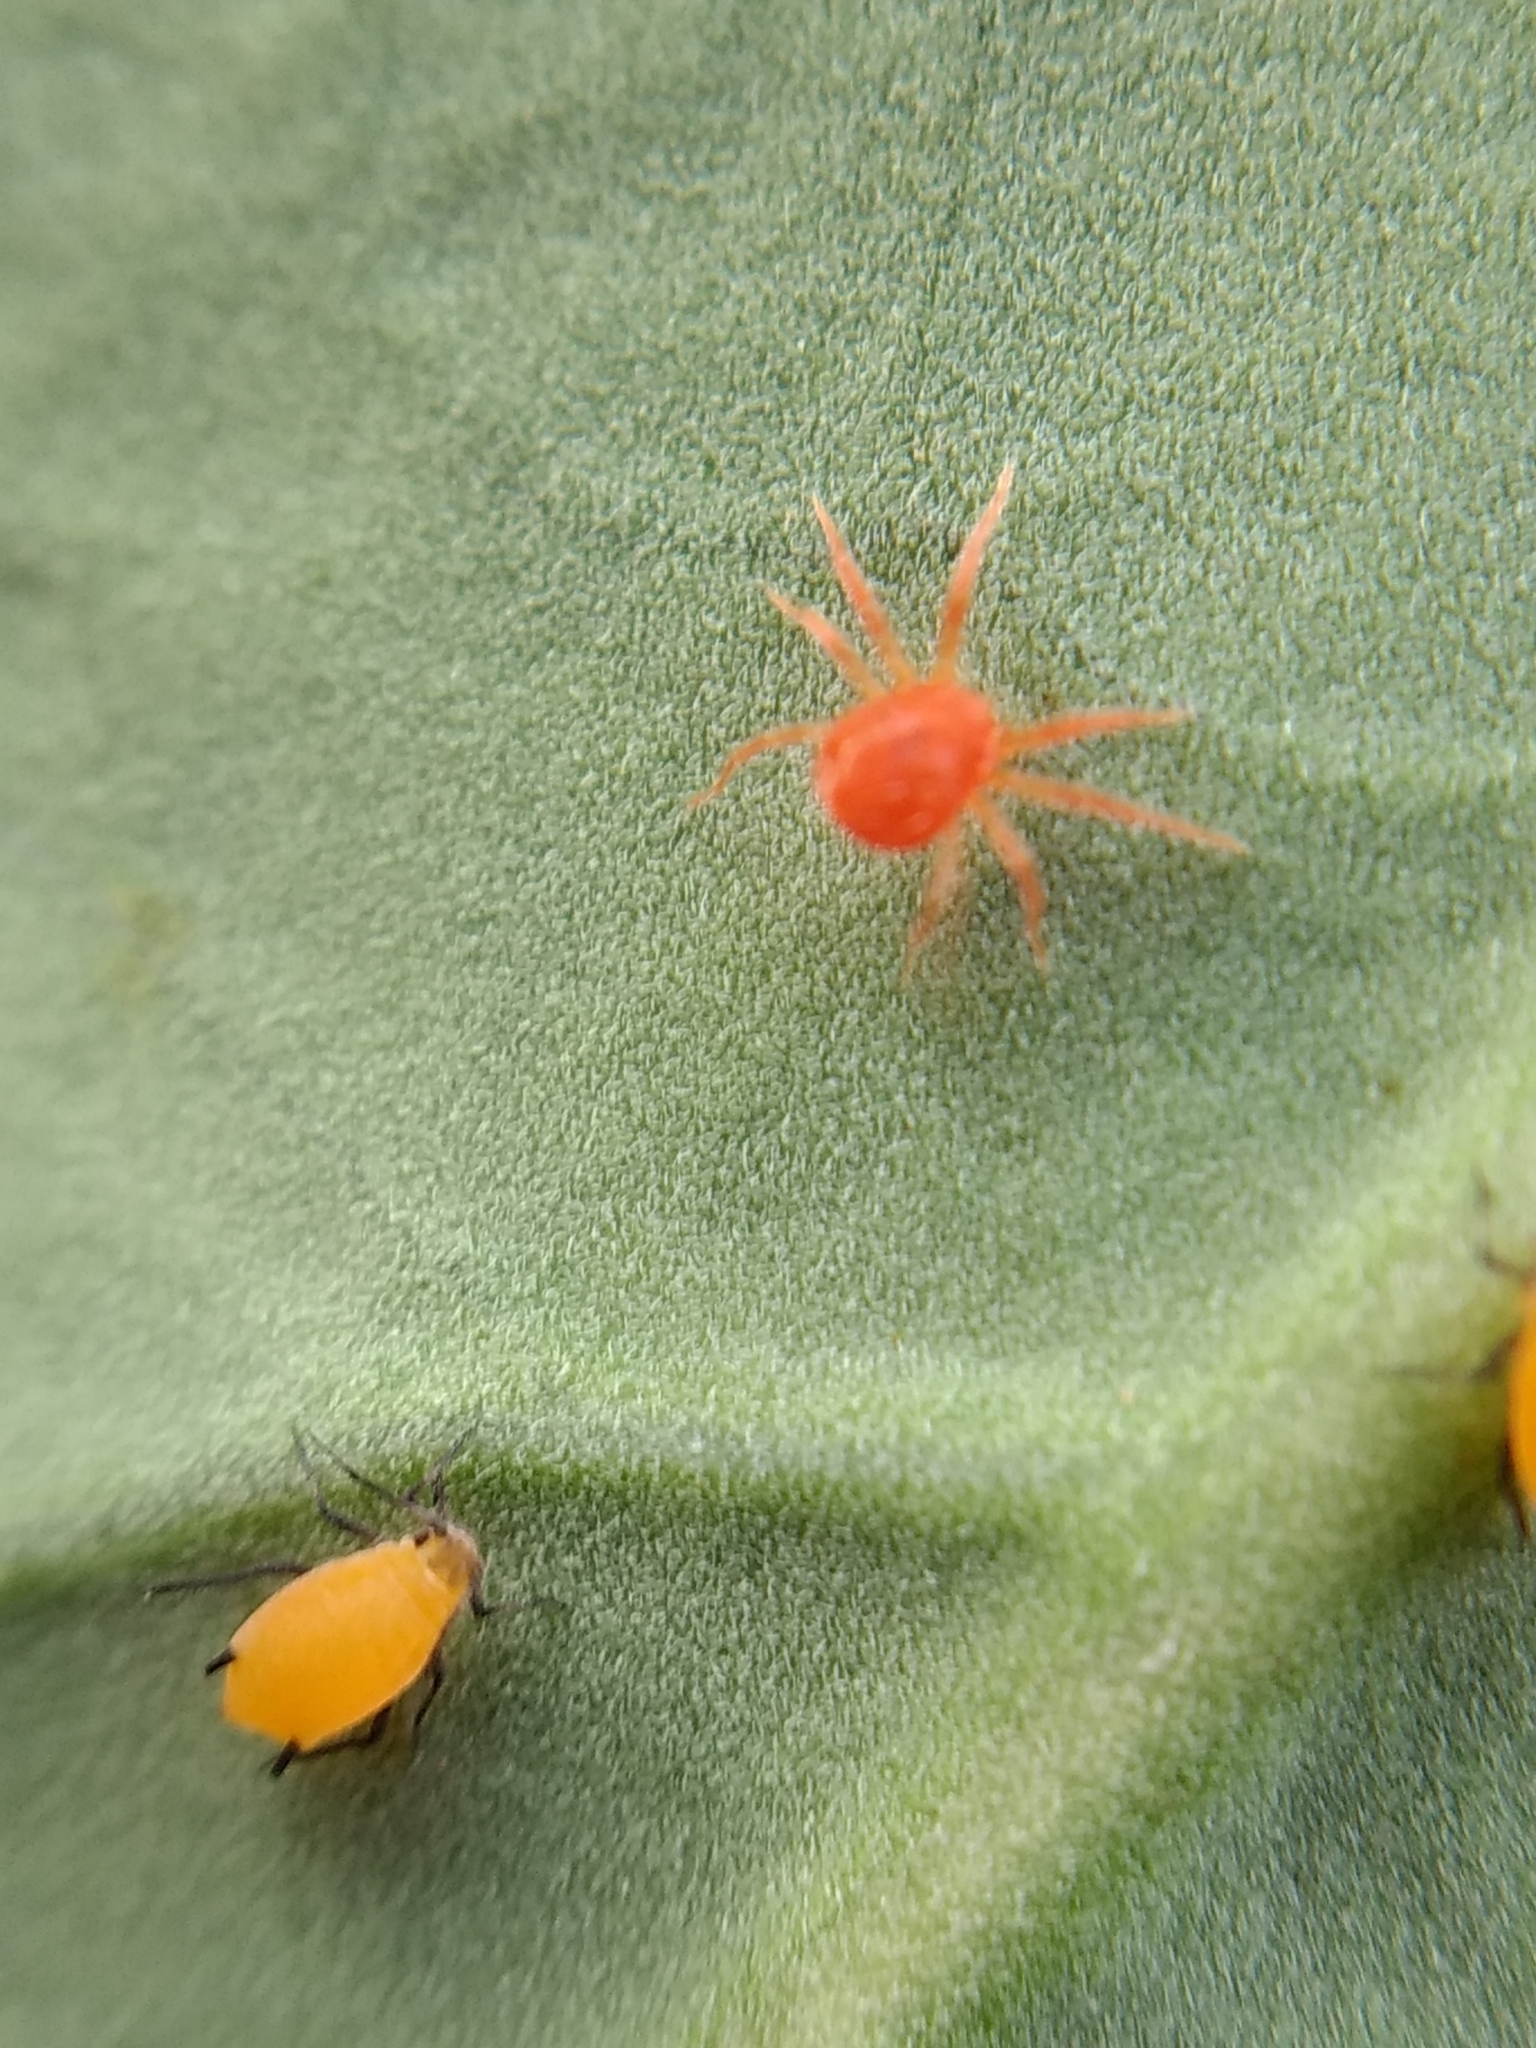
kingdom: Animalia
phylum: Arthropoda
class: Insecta
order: Hemiptera
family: Aphididae
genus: Aphis
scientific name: Aphis nerii
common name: Oleander aphid
